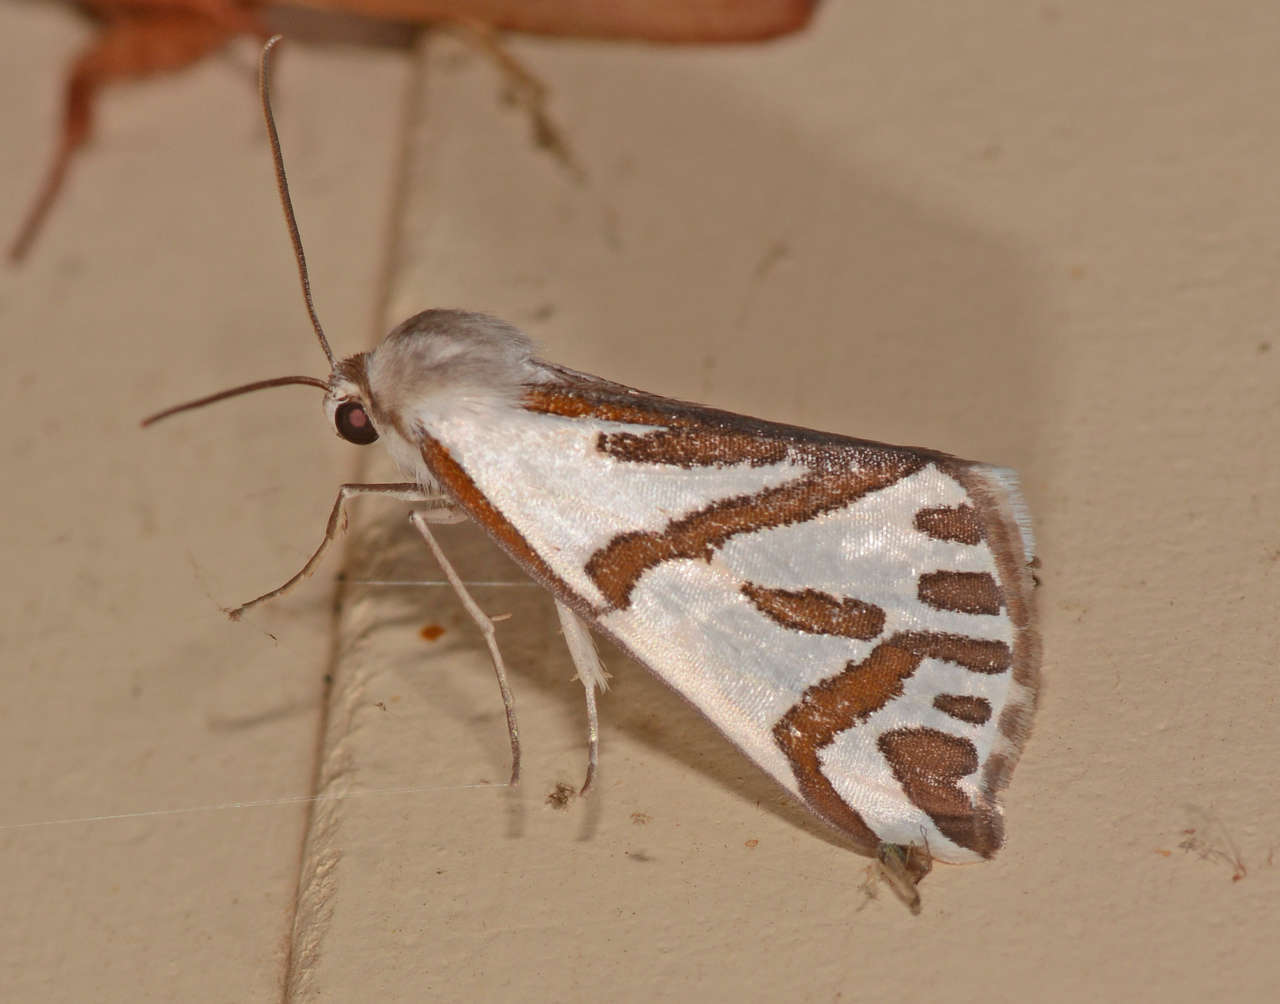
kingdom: Animalia
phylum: Arthropoda
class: Insecta
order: Lepidoptera
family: Geometridae
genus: Thalaina
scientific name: Thalaina inscripta
